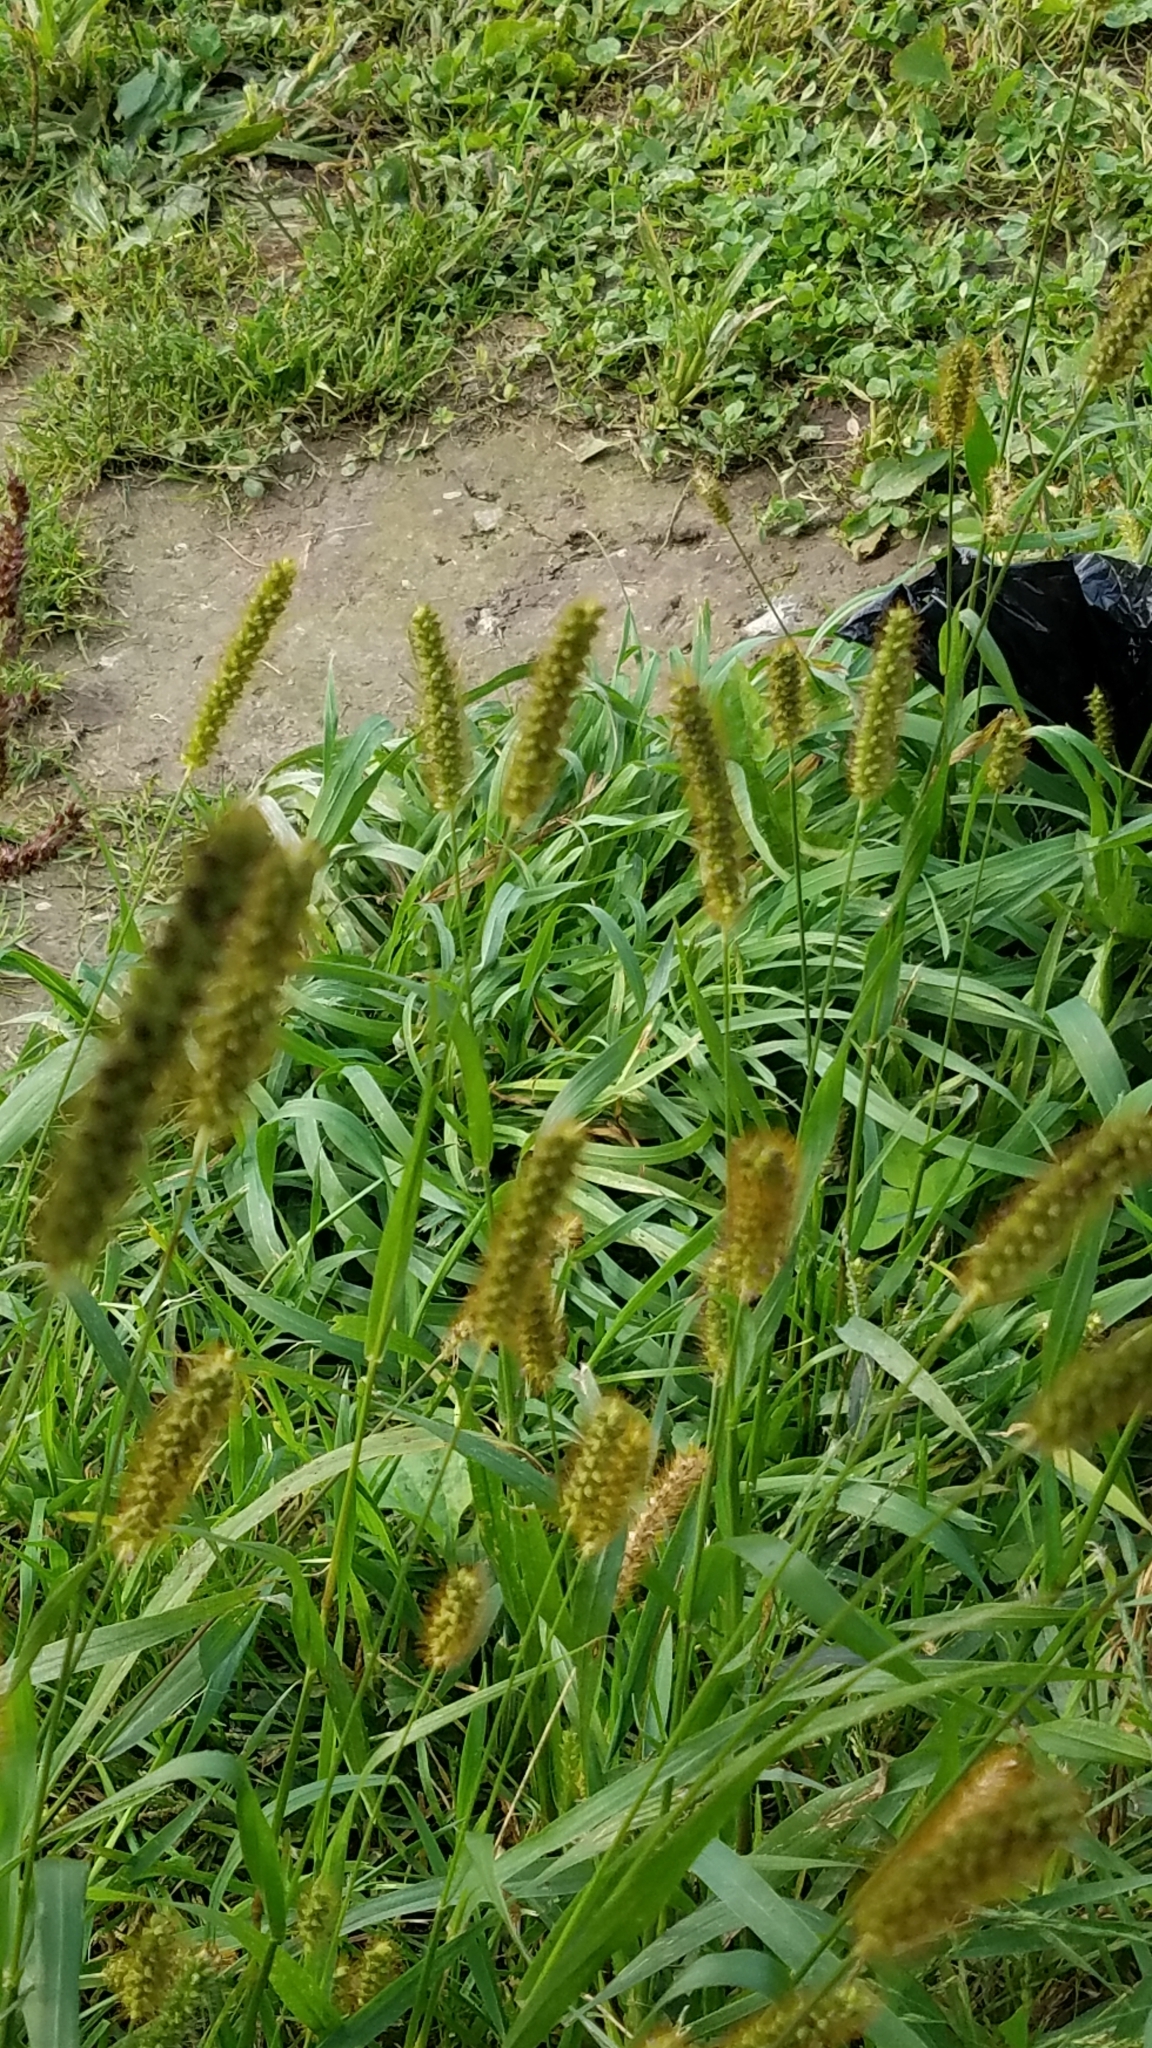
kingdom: Plantae
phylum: Tracheophyta
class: Liliopsida
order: Poales
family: Poaceae
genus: Setaria
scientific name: Setaria pumila
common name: Yellow bristle-grass
